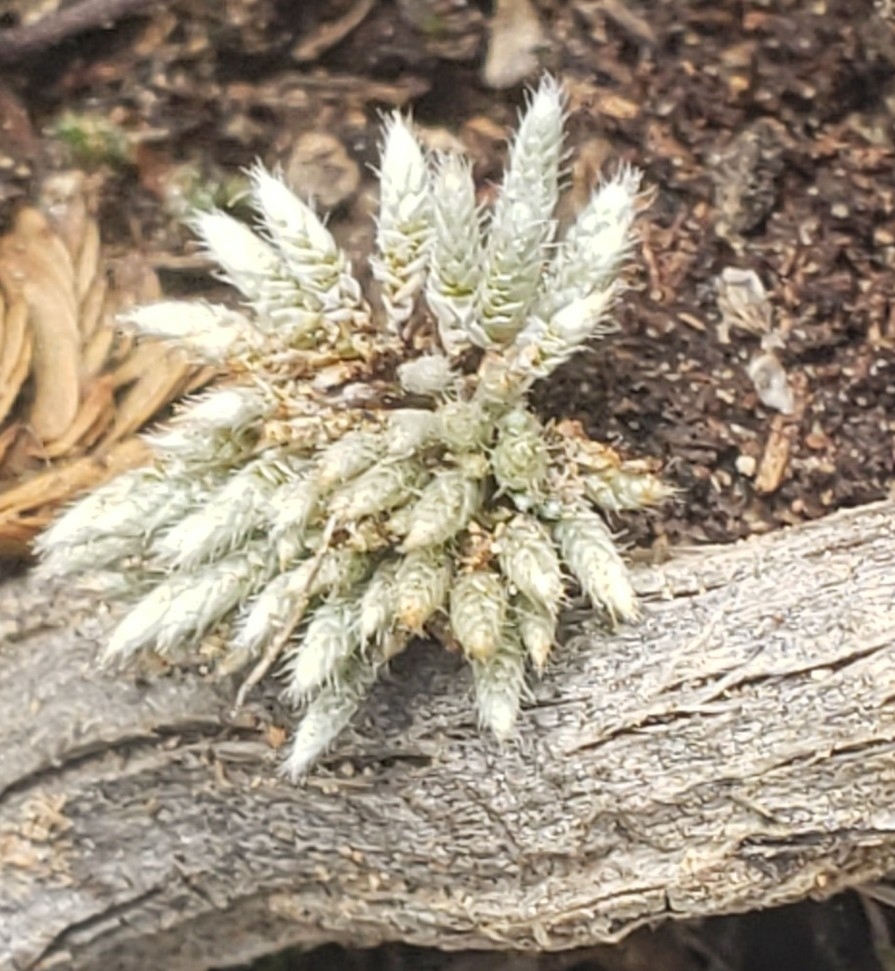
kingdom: Plantae
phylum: Bryophyta
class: Bryopsida
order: Bryales
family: Bryaceae
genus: Bryum
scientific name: Bryum argenteum
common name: Silver-moss
